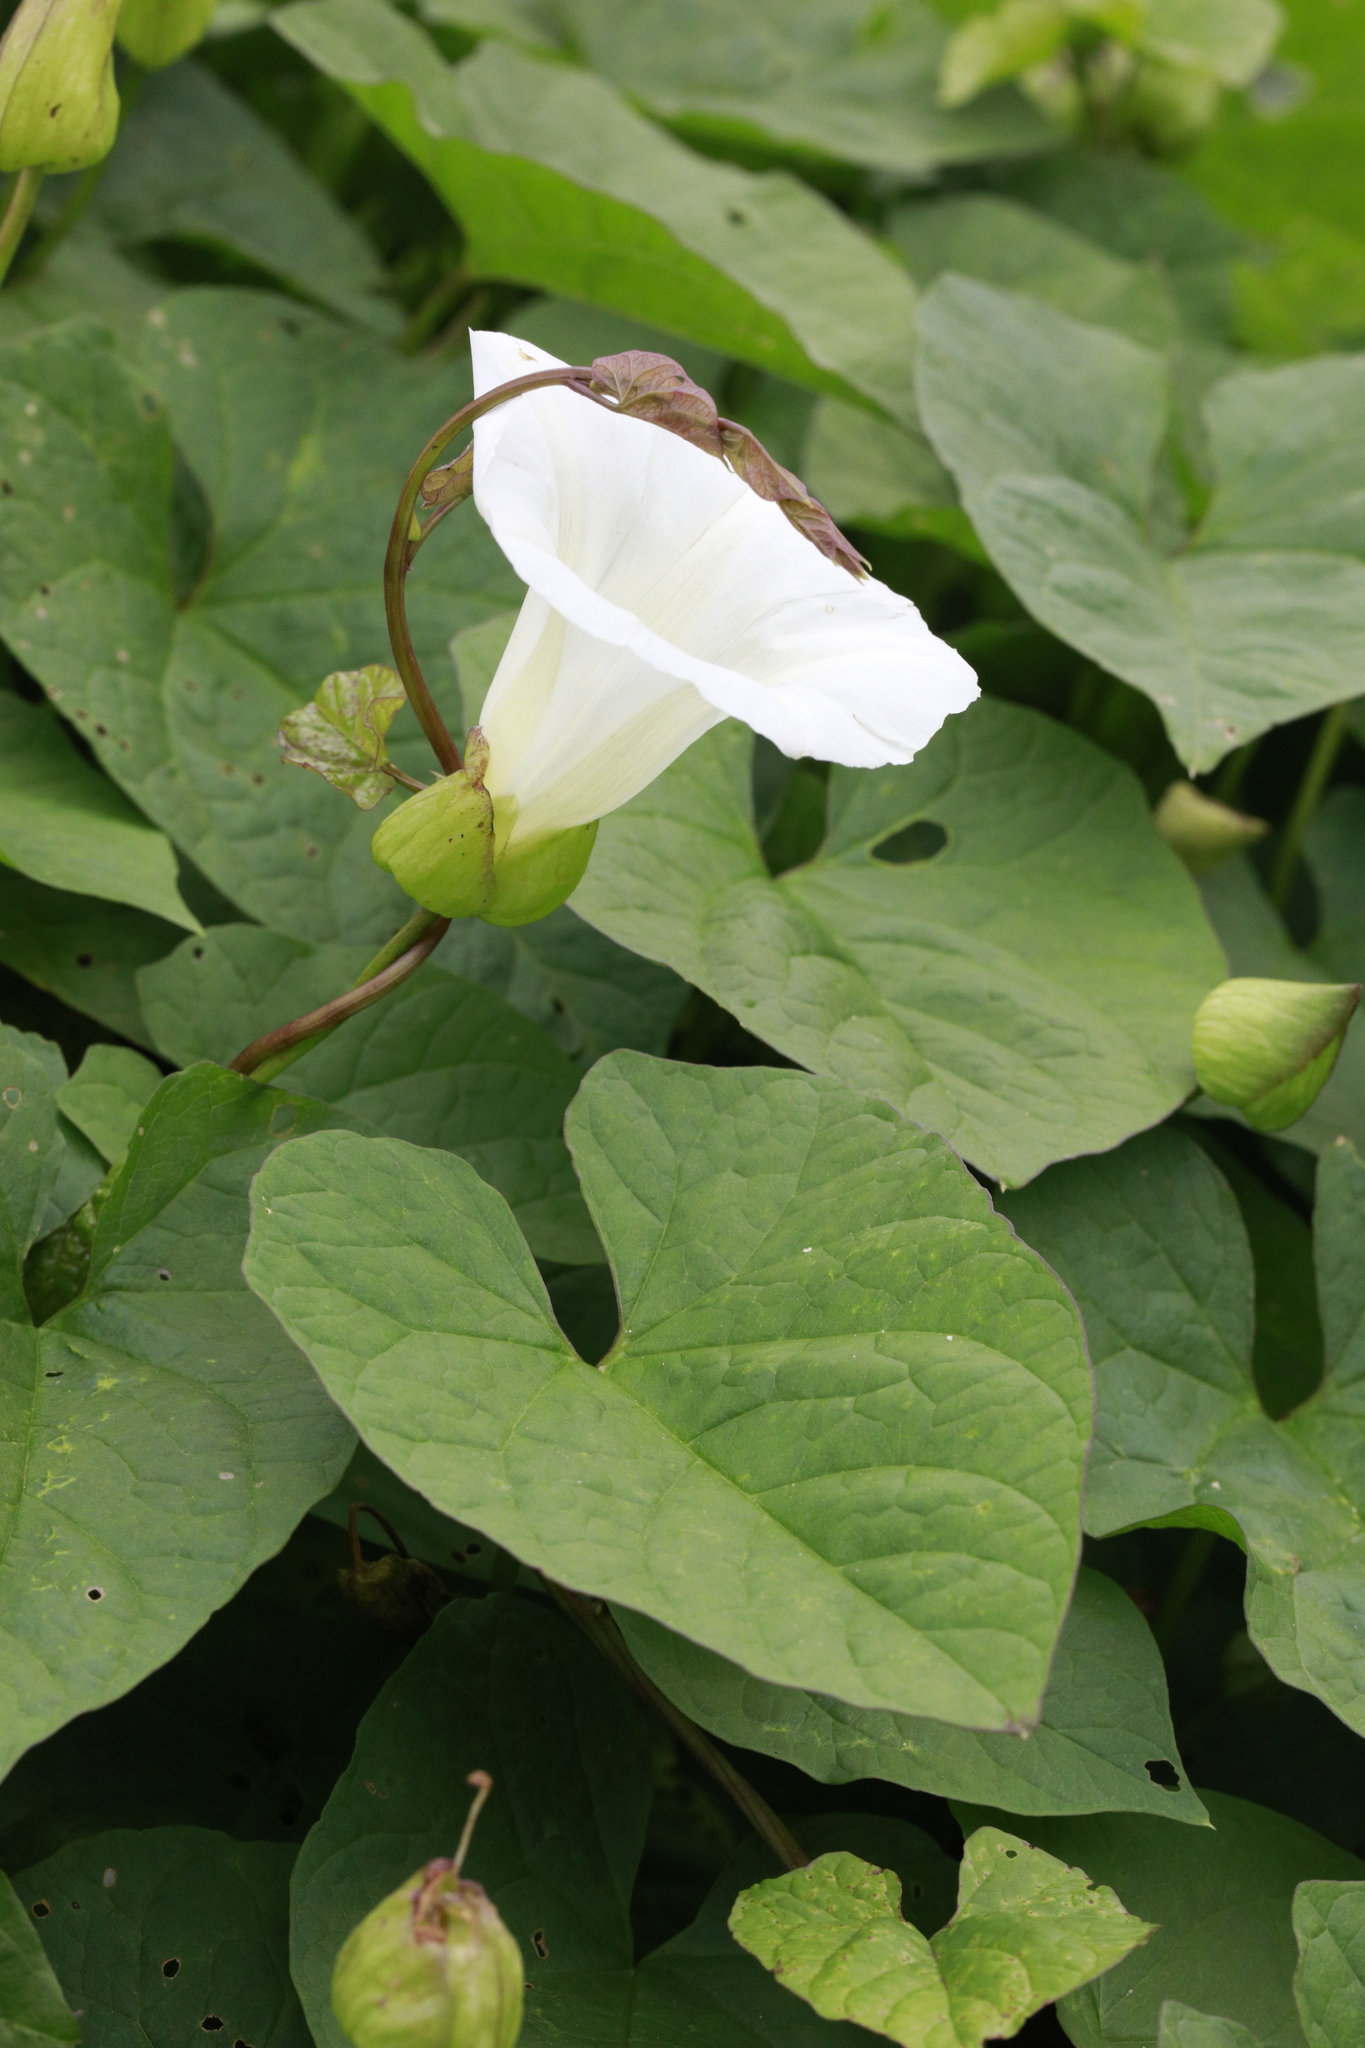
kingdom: Plantae
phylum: Tracheophyta
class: Magnoliopsida
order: Solanales
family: Convolvulaceae
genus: Calystegia
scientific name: Calystegia silvatica
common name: Large bindweed
